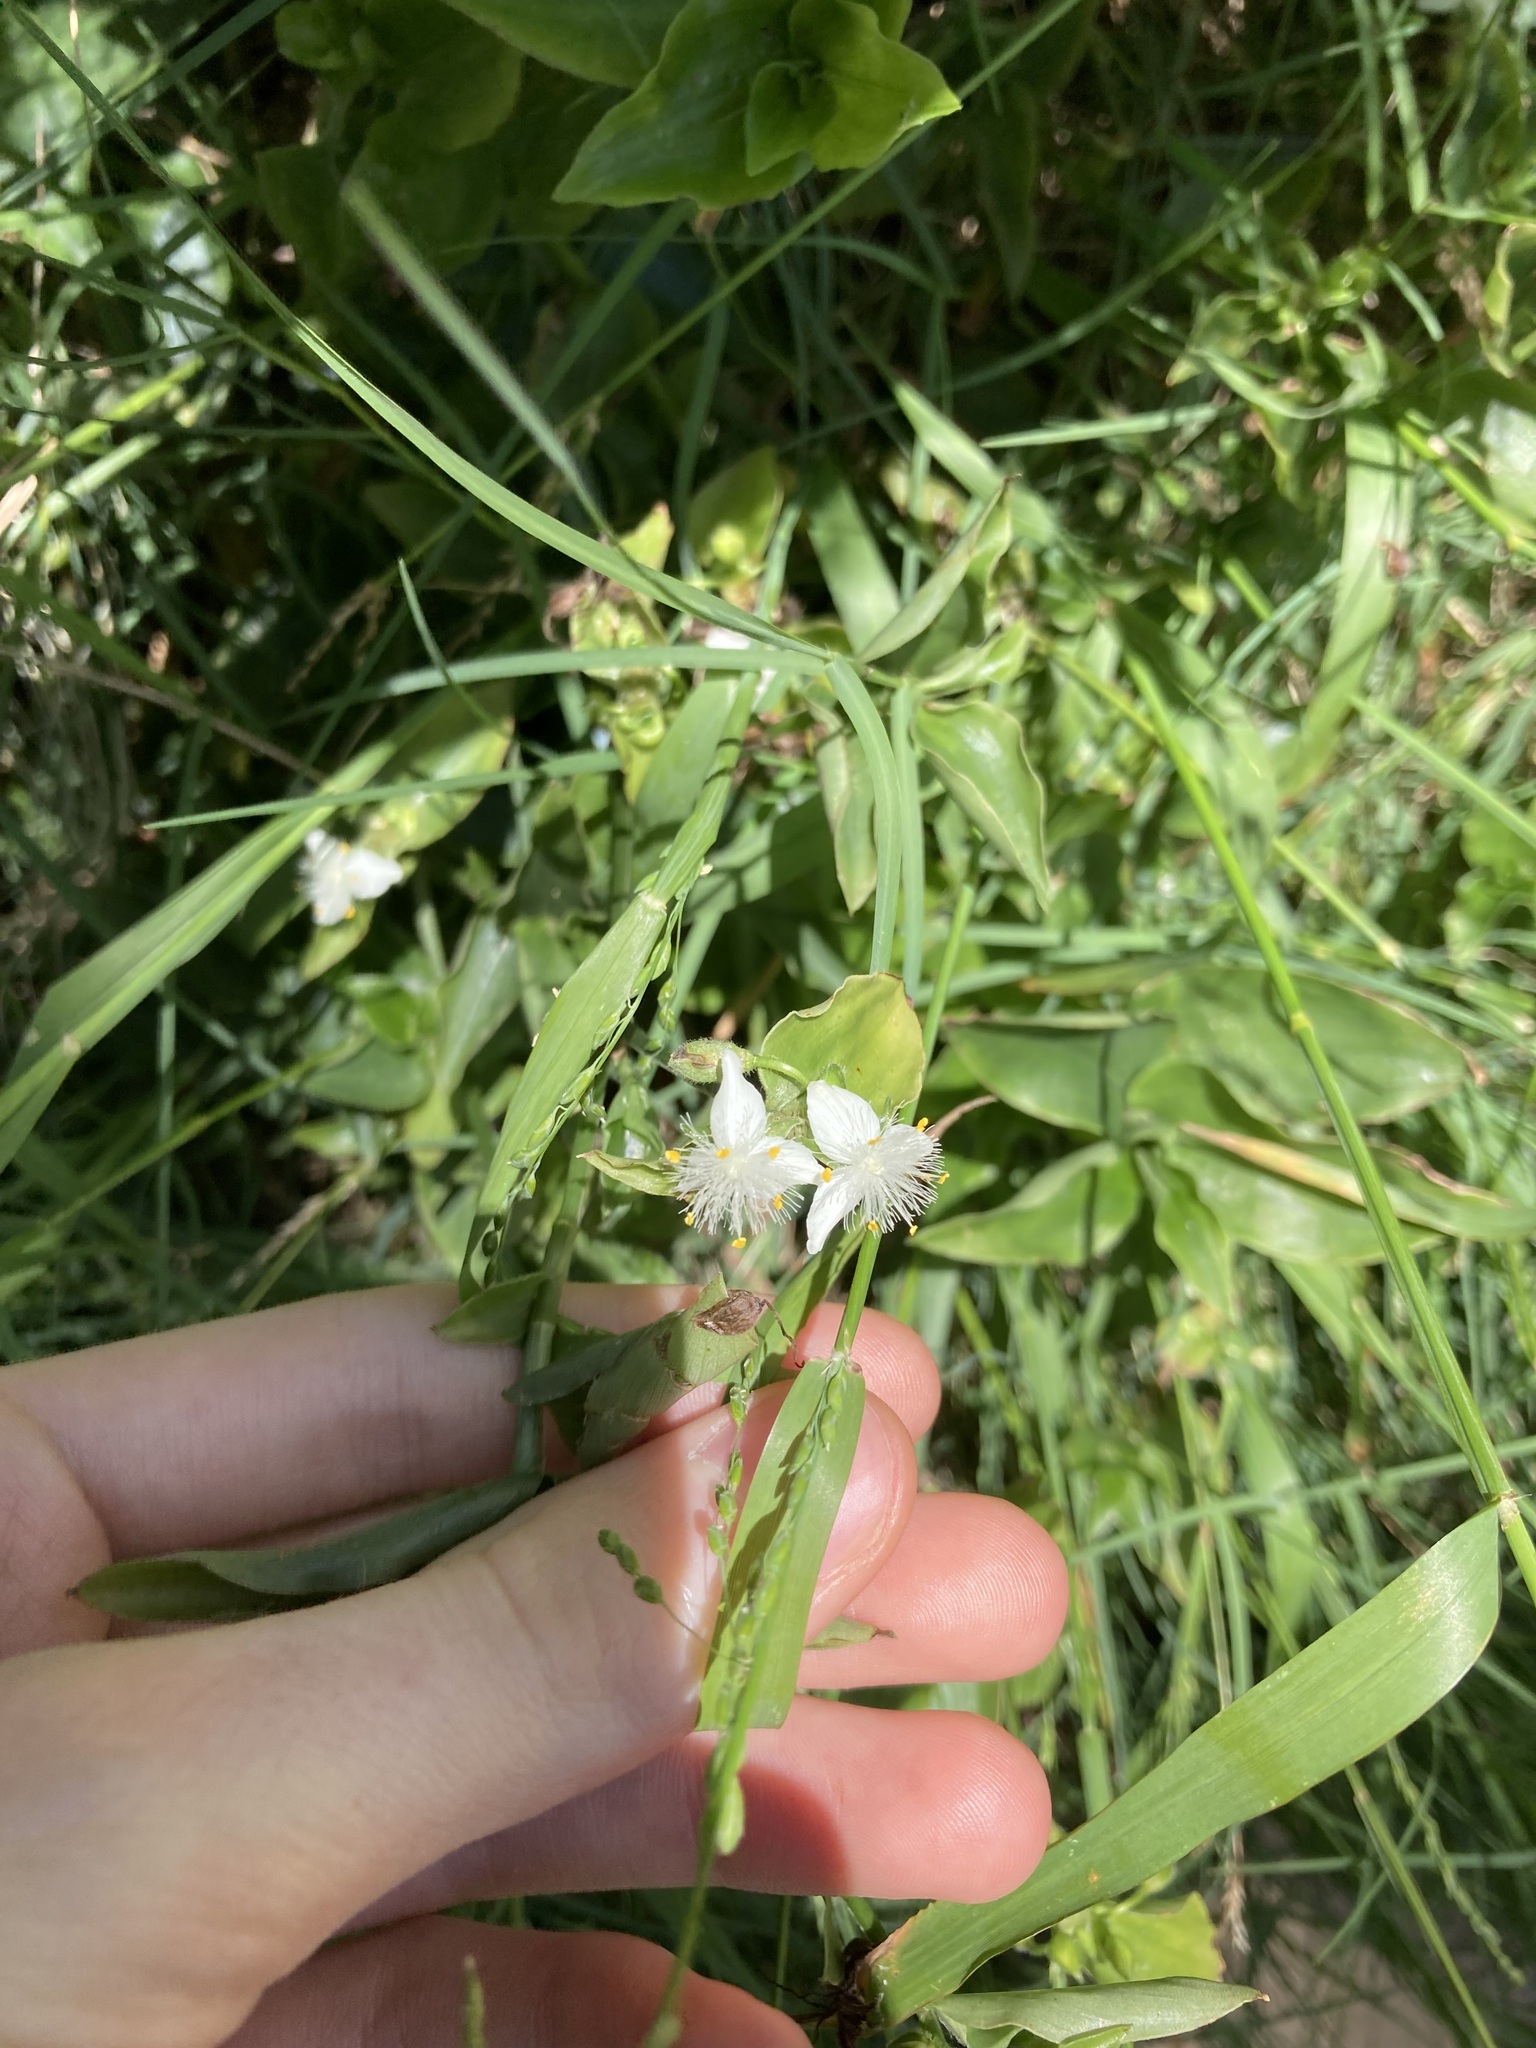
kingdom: Plantae
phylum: Tracheophyta
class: Liliopsida
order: Commelinales
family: Commelinaceae
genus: Tradescantia
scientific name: Tradescantia fluminensis
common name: Wandering-jew
